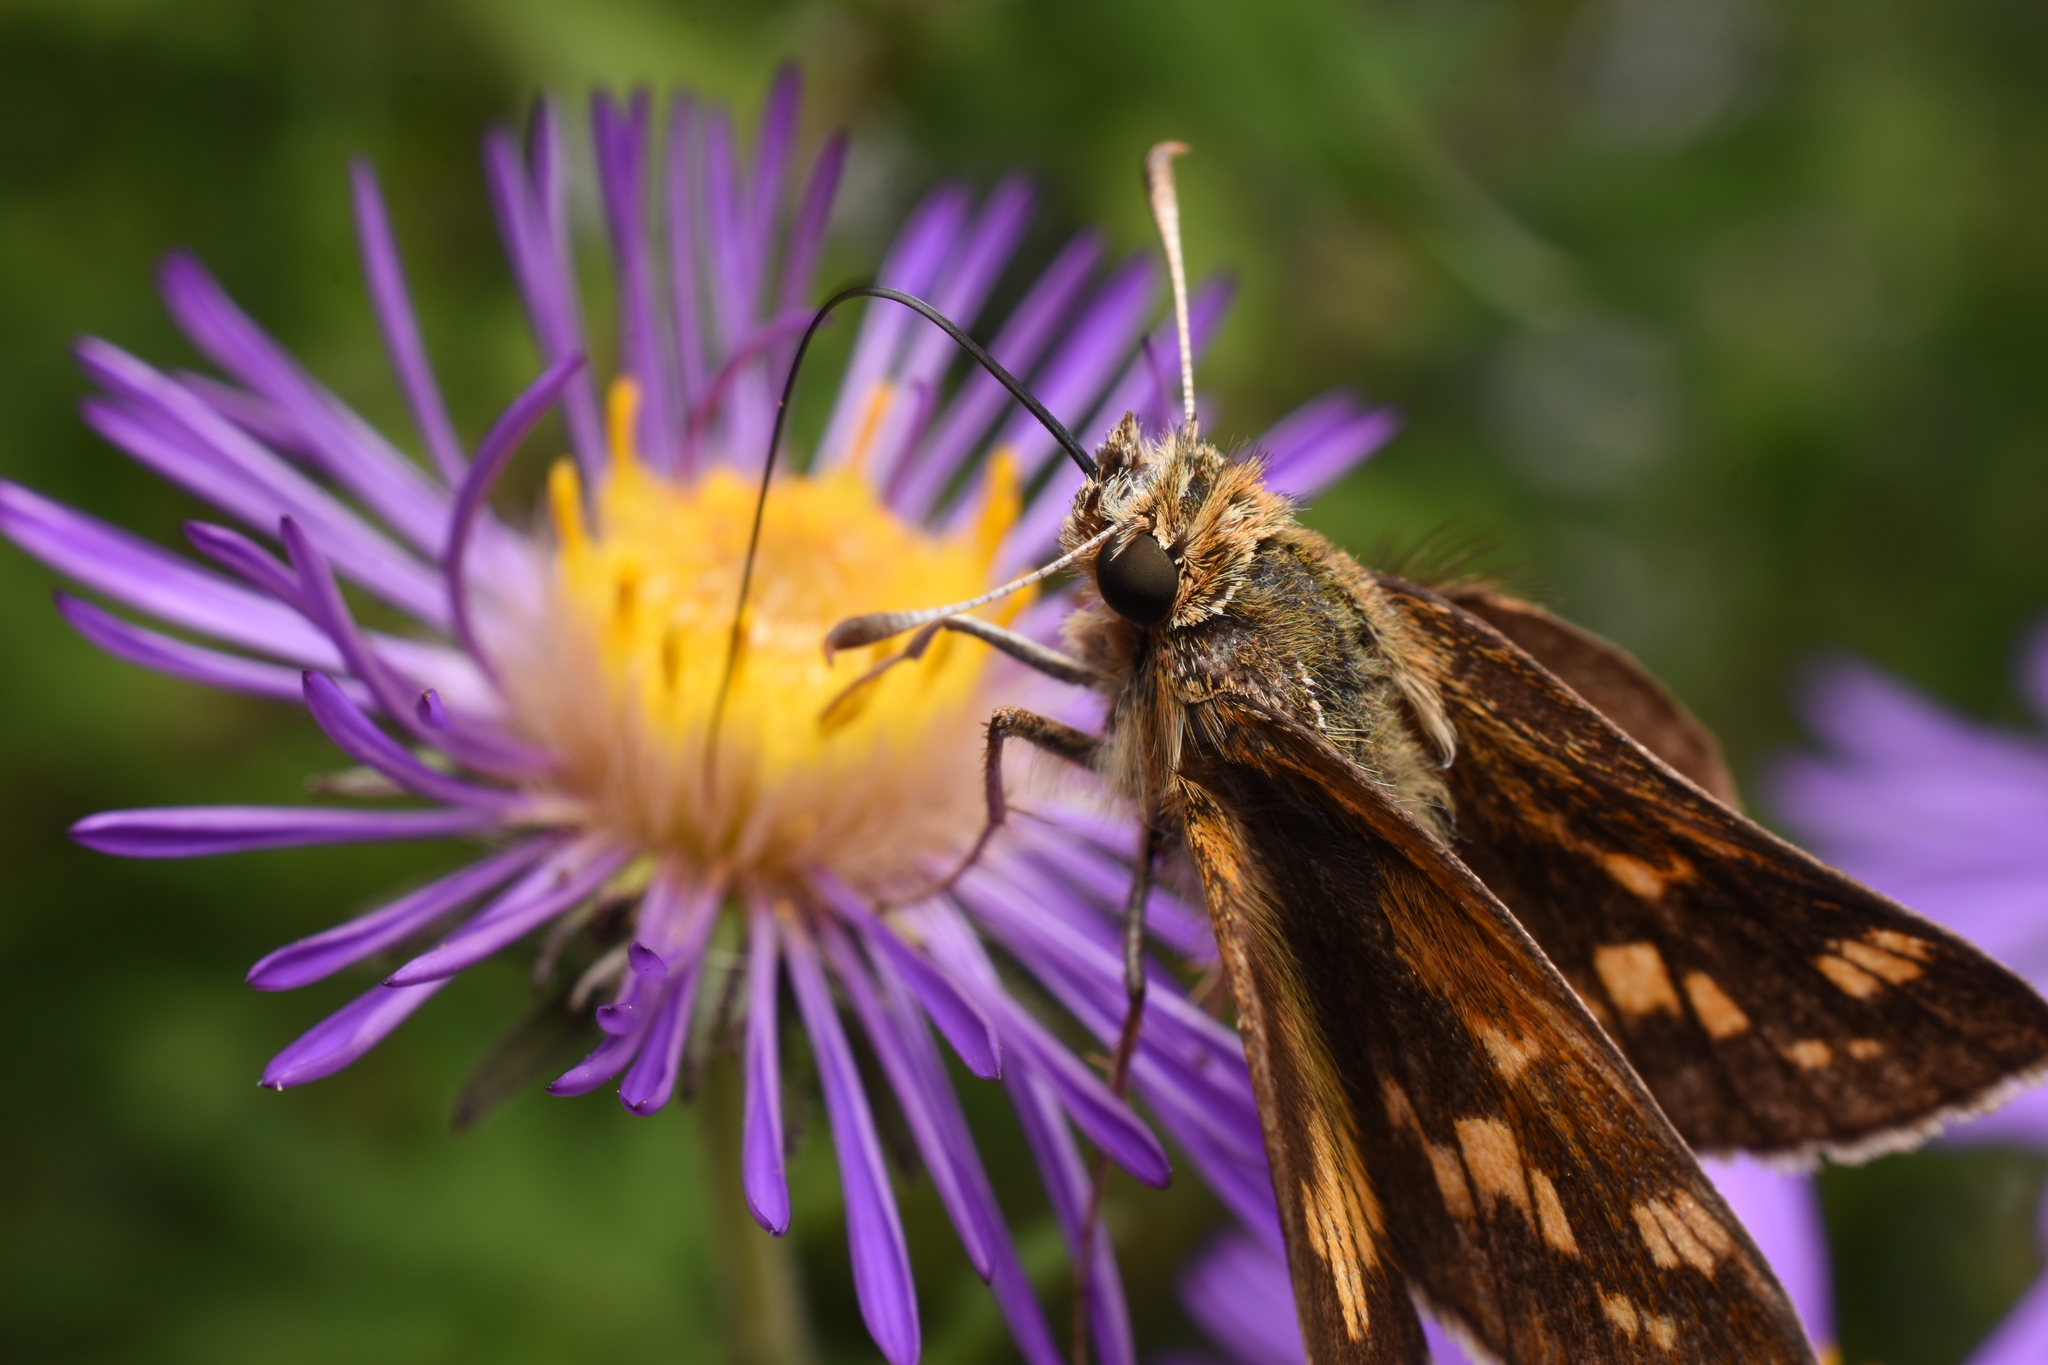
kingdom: Animalia
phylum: Arthropoda
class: Insecta
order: Lepidoptera
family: Hesperiidae
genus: Polites
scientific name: Polites coras
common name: Peck's skipper
